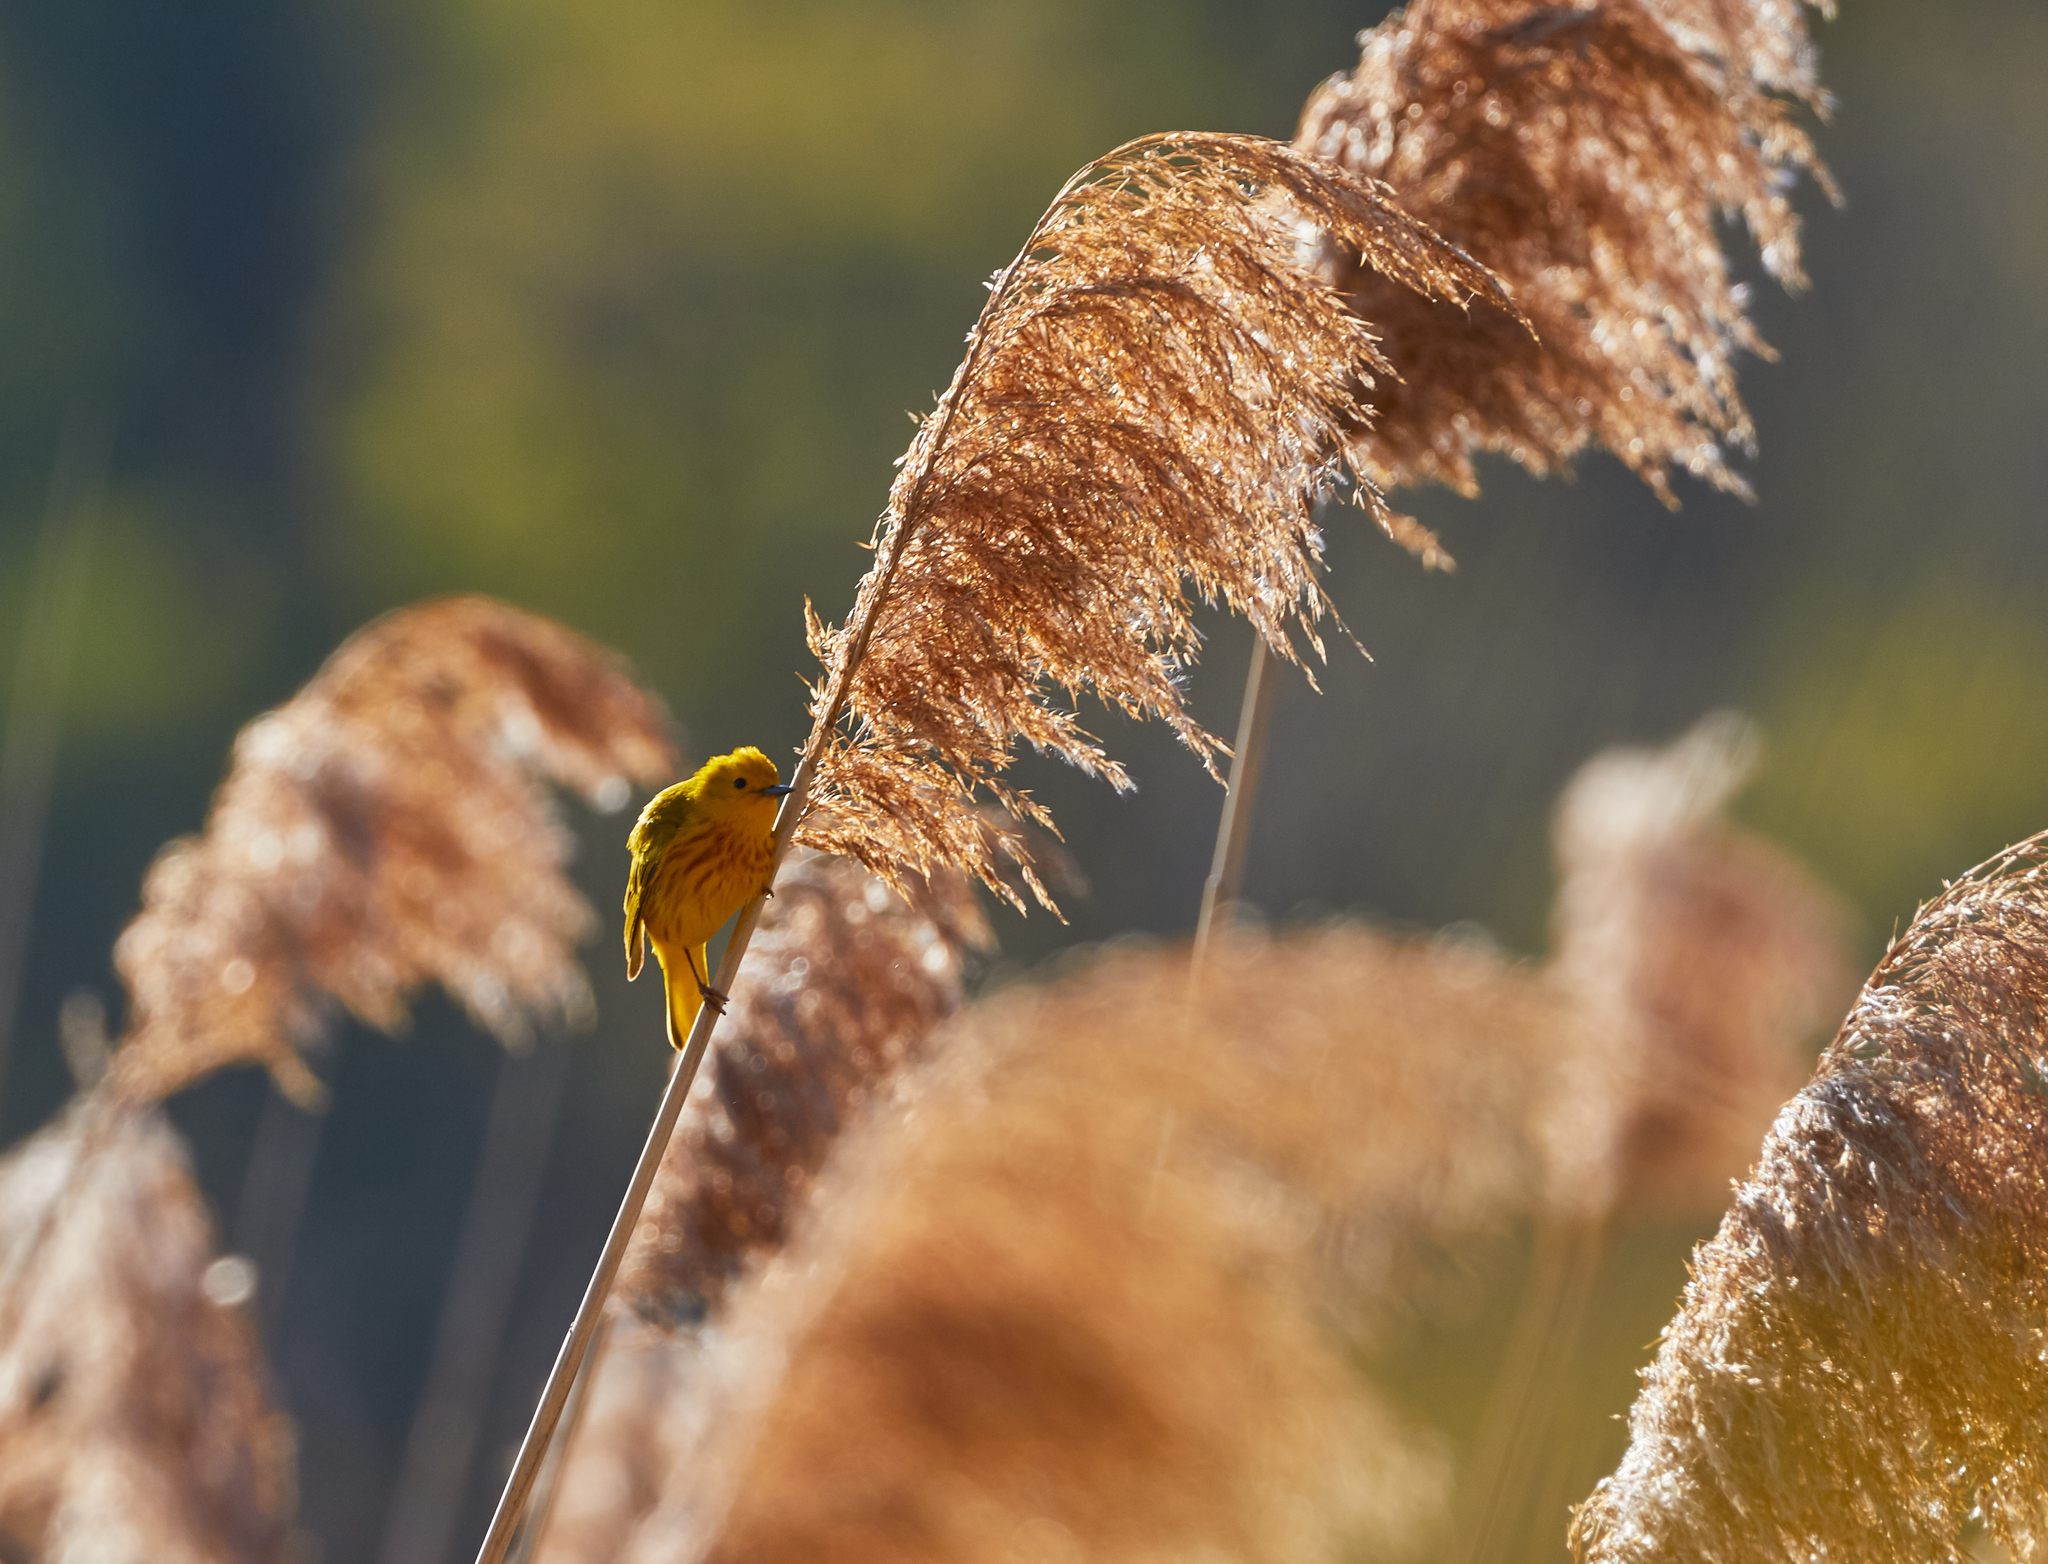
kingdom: Animalia
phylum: Chordata
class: Aves
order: Passeriformes
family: Parulidae
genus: Setophaga
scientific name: Setophaga petechia
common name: Yellow warbler
